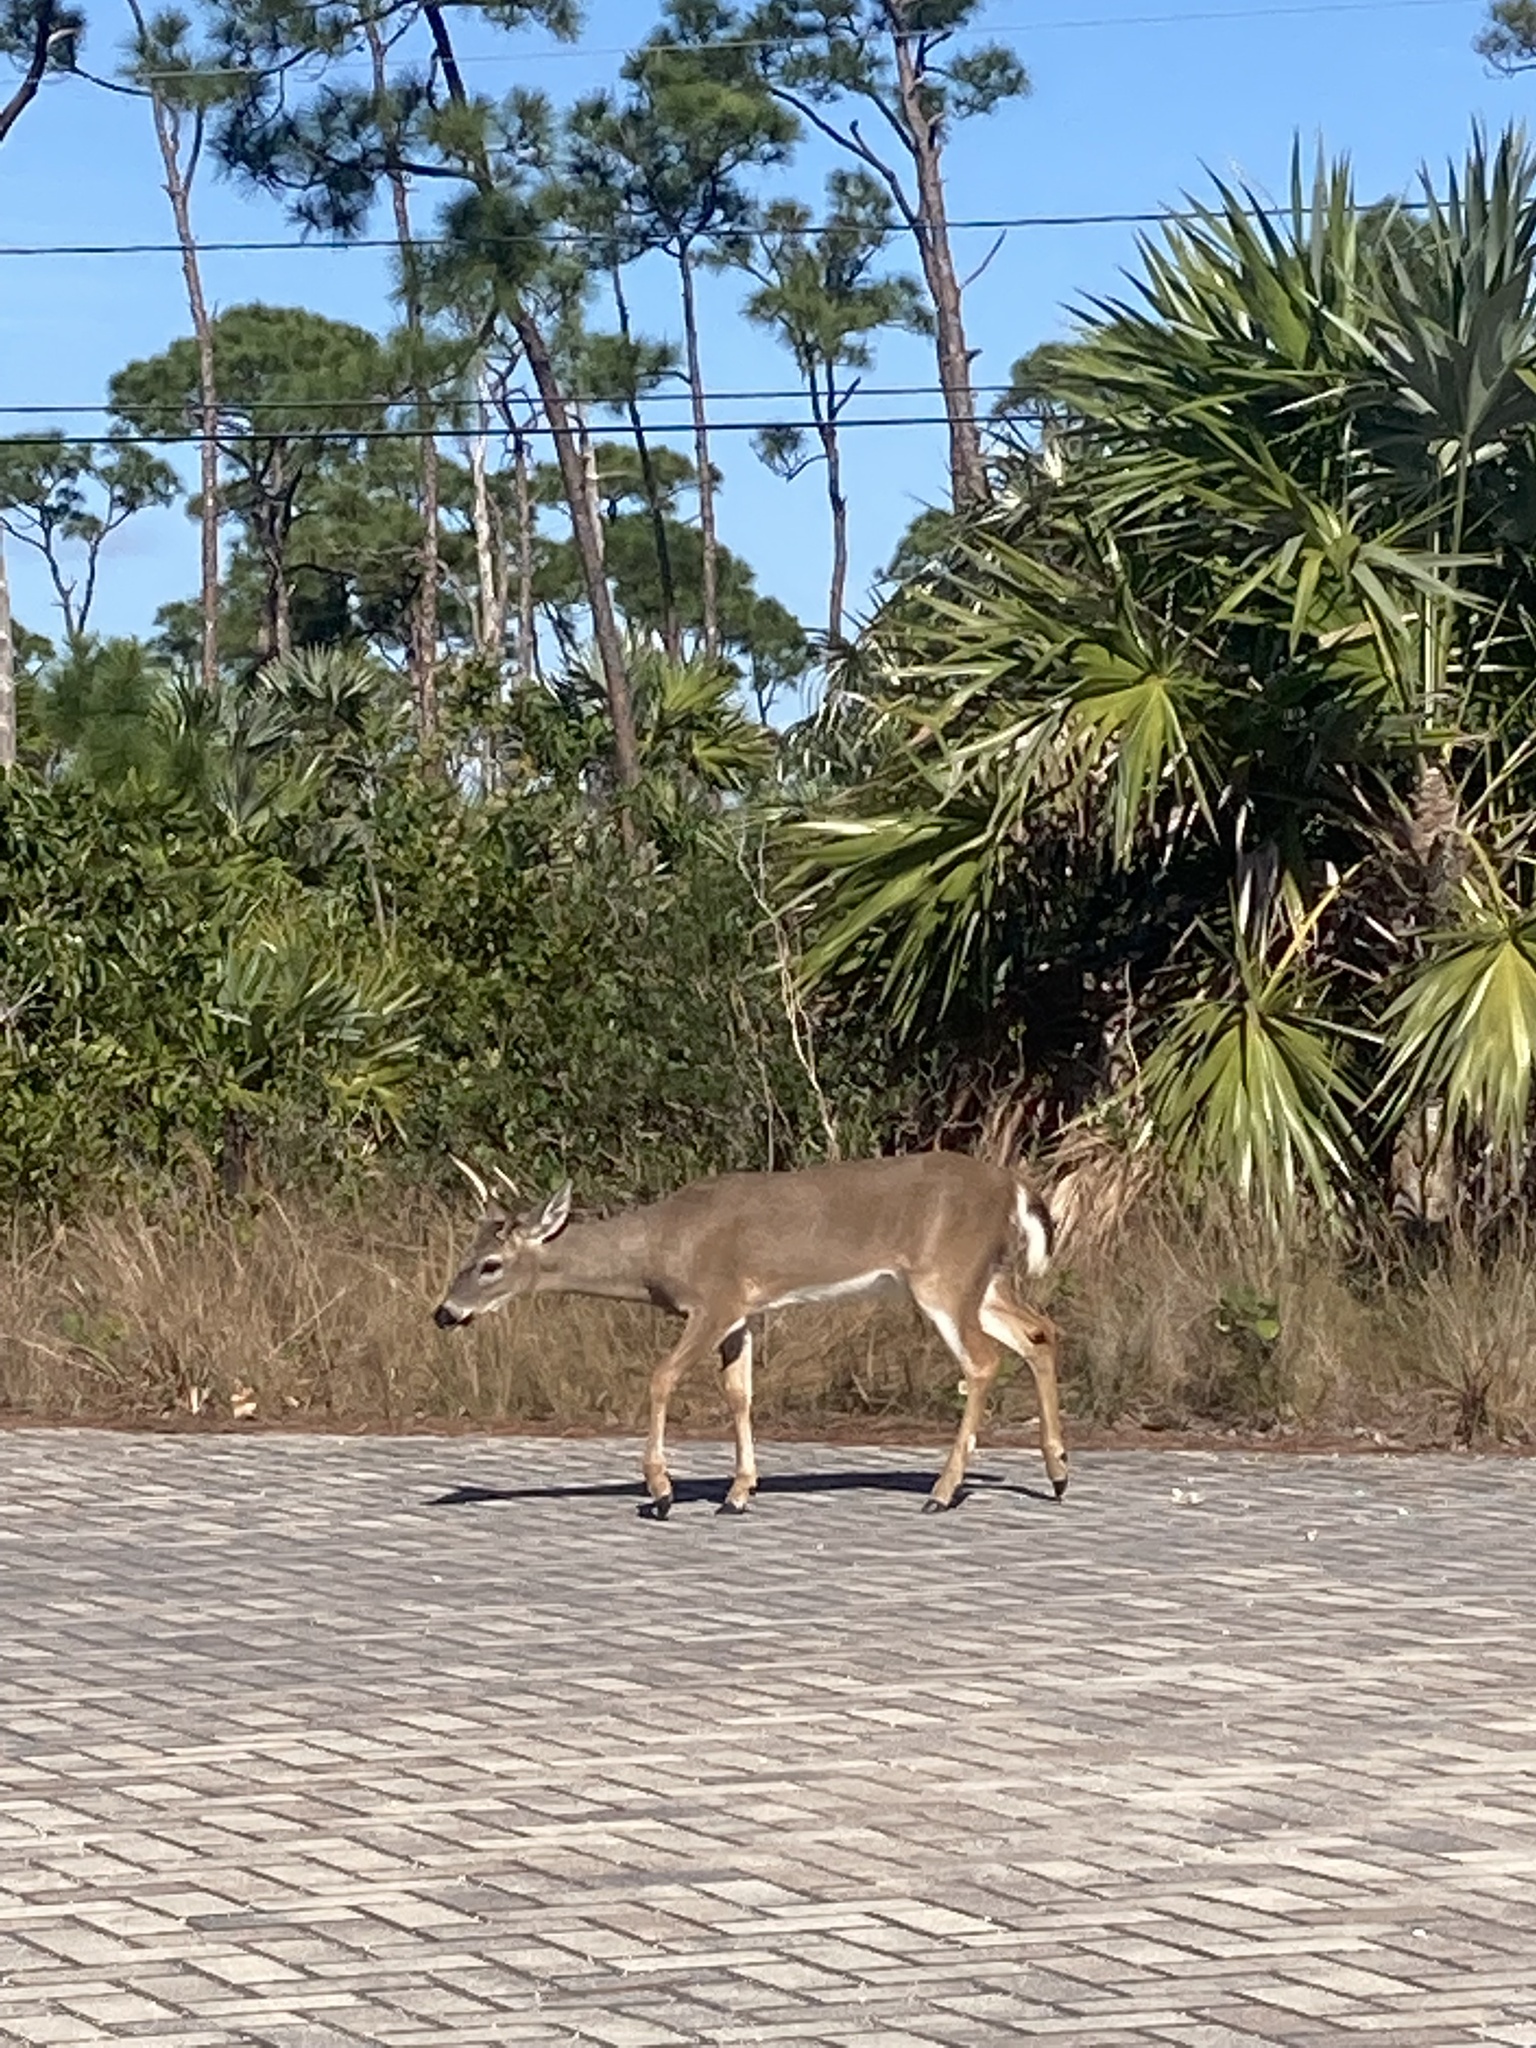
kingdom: Animalia
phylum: Chordata
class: Mammalia
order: Artiodactyla
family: Cervidae
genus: Odocoileus
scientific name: Odocoileus virginianus
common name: White-tailed deer
